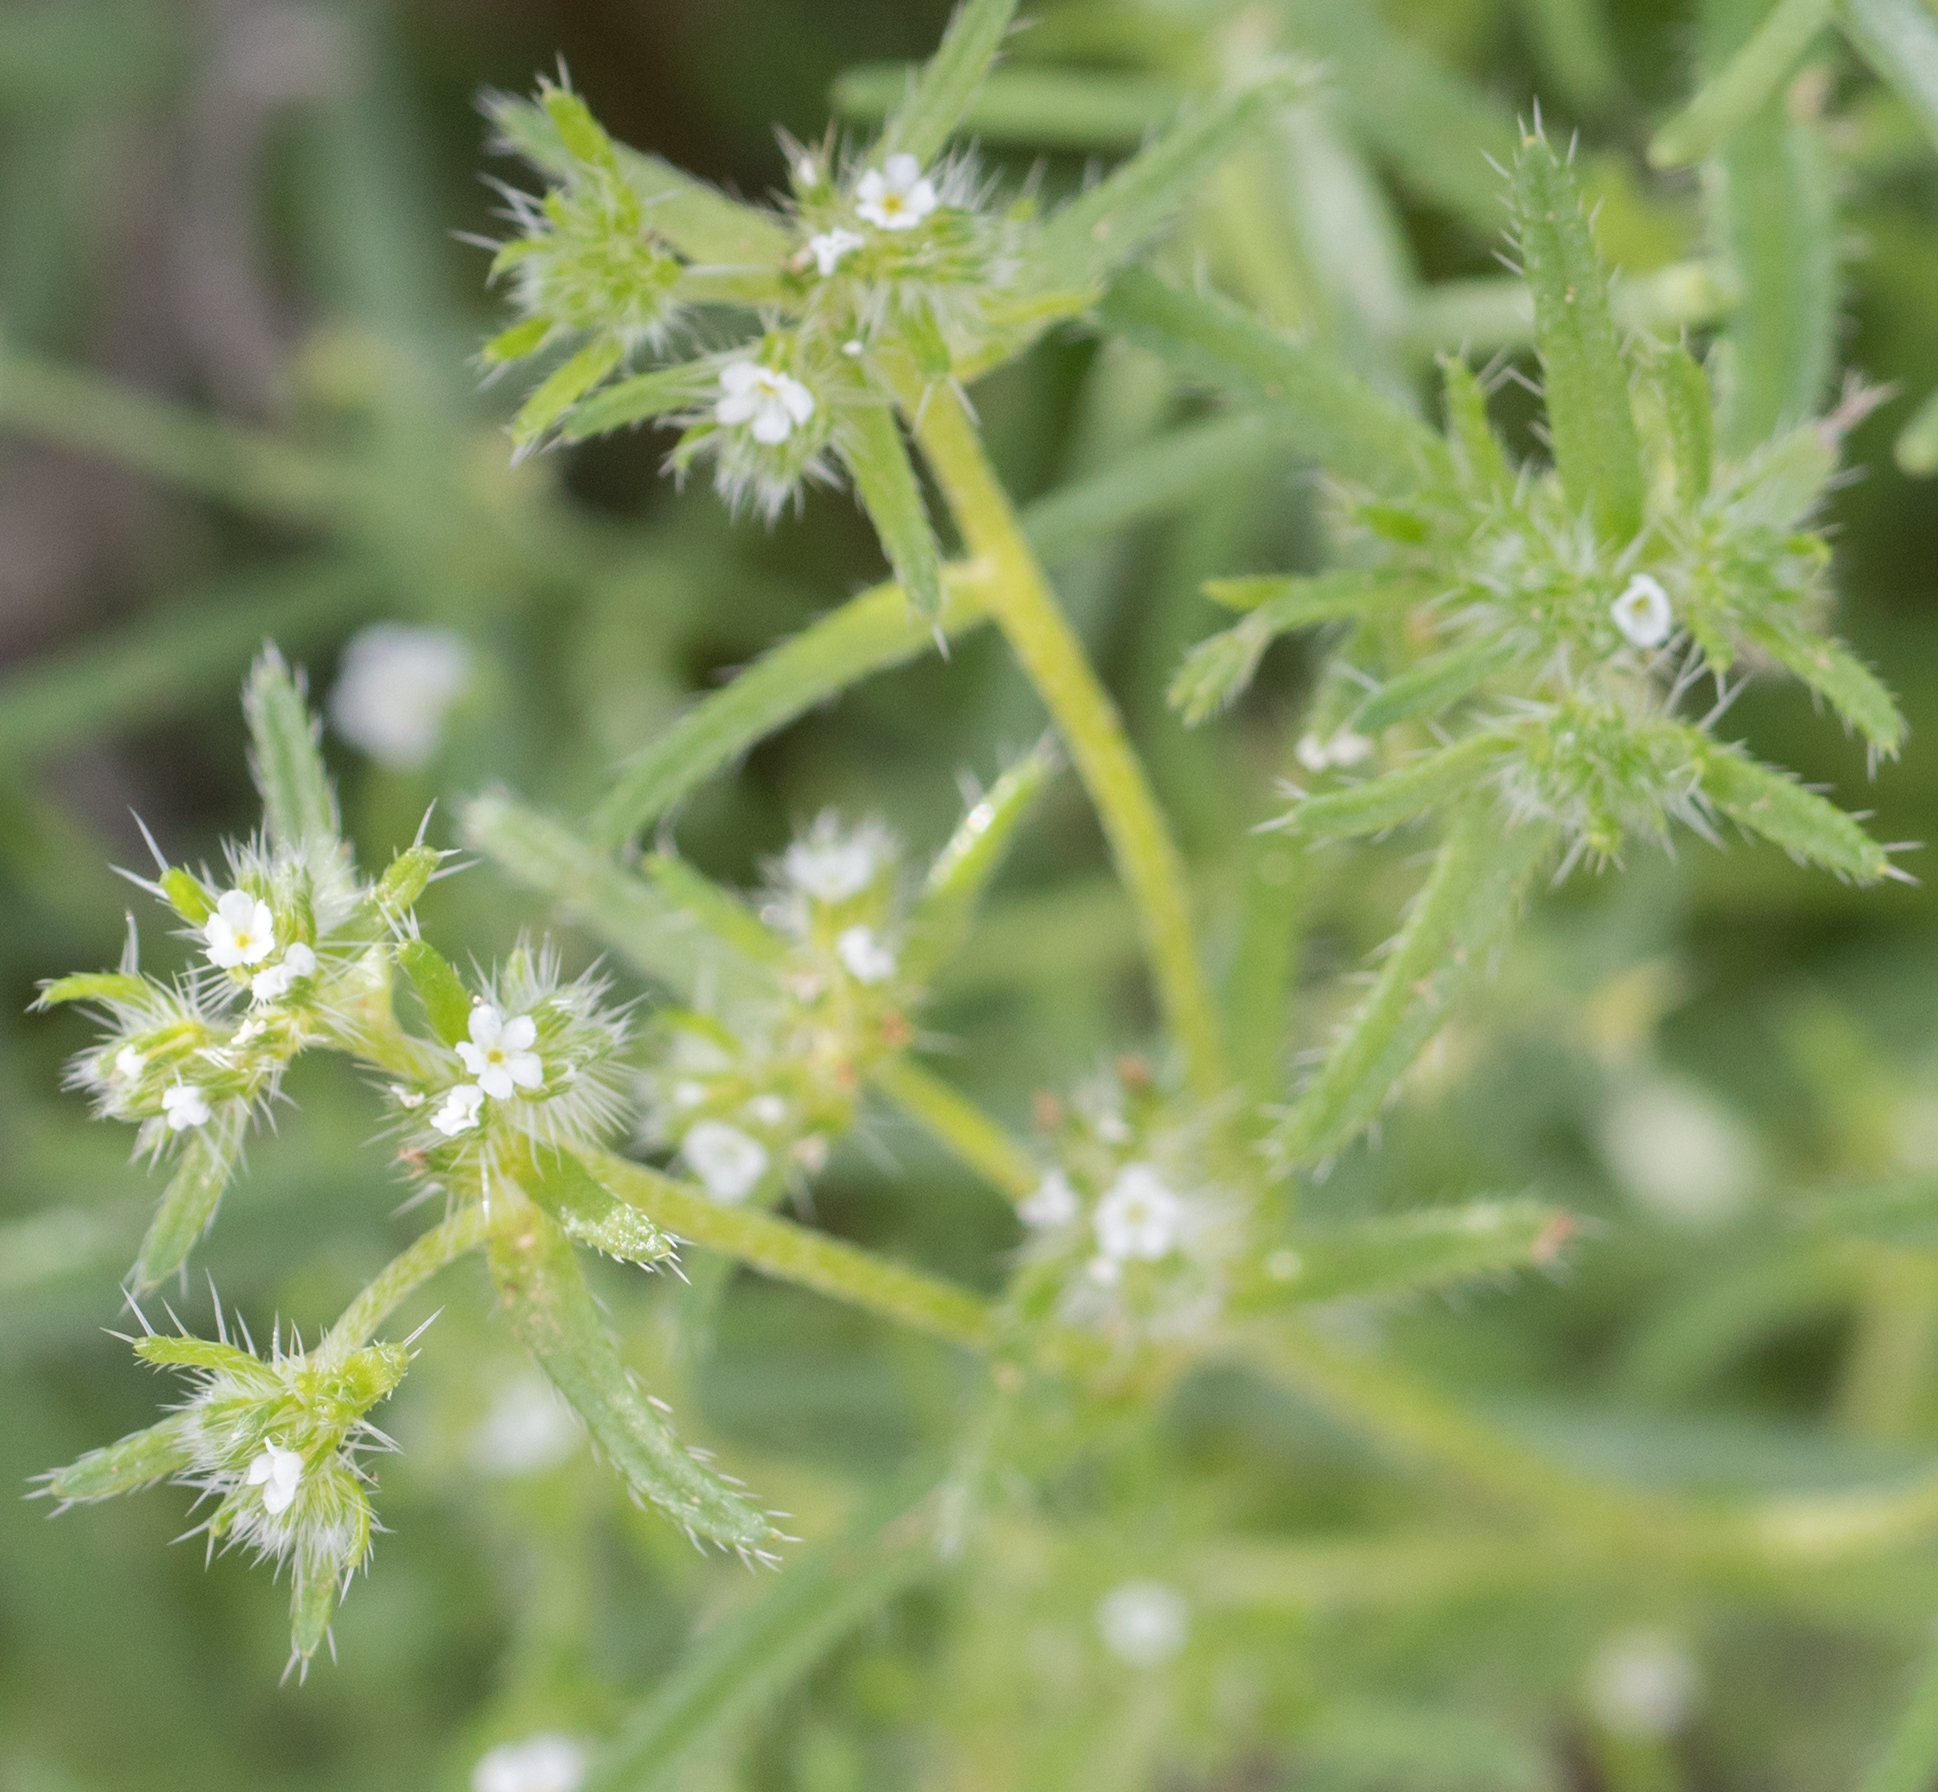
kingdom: Plantae
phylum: Tracheophyta
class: Magnoliopsida
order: Boraginales
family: Boraginaceae
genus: Cryptantha
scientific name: Cryptantha maritima
